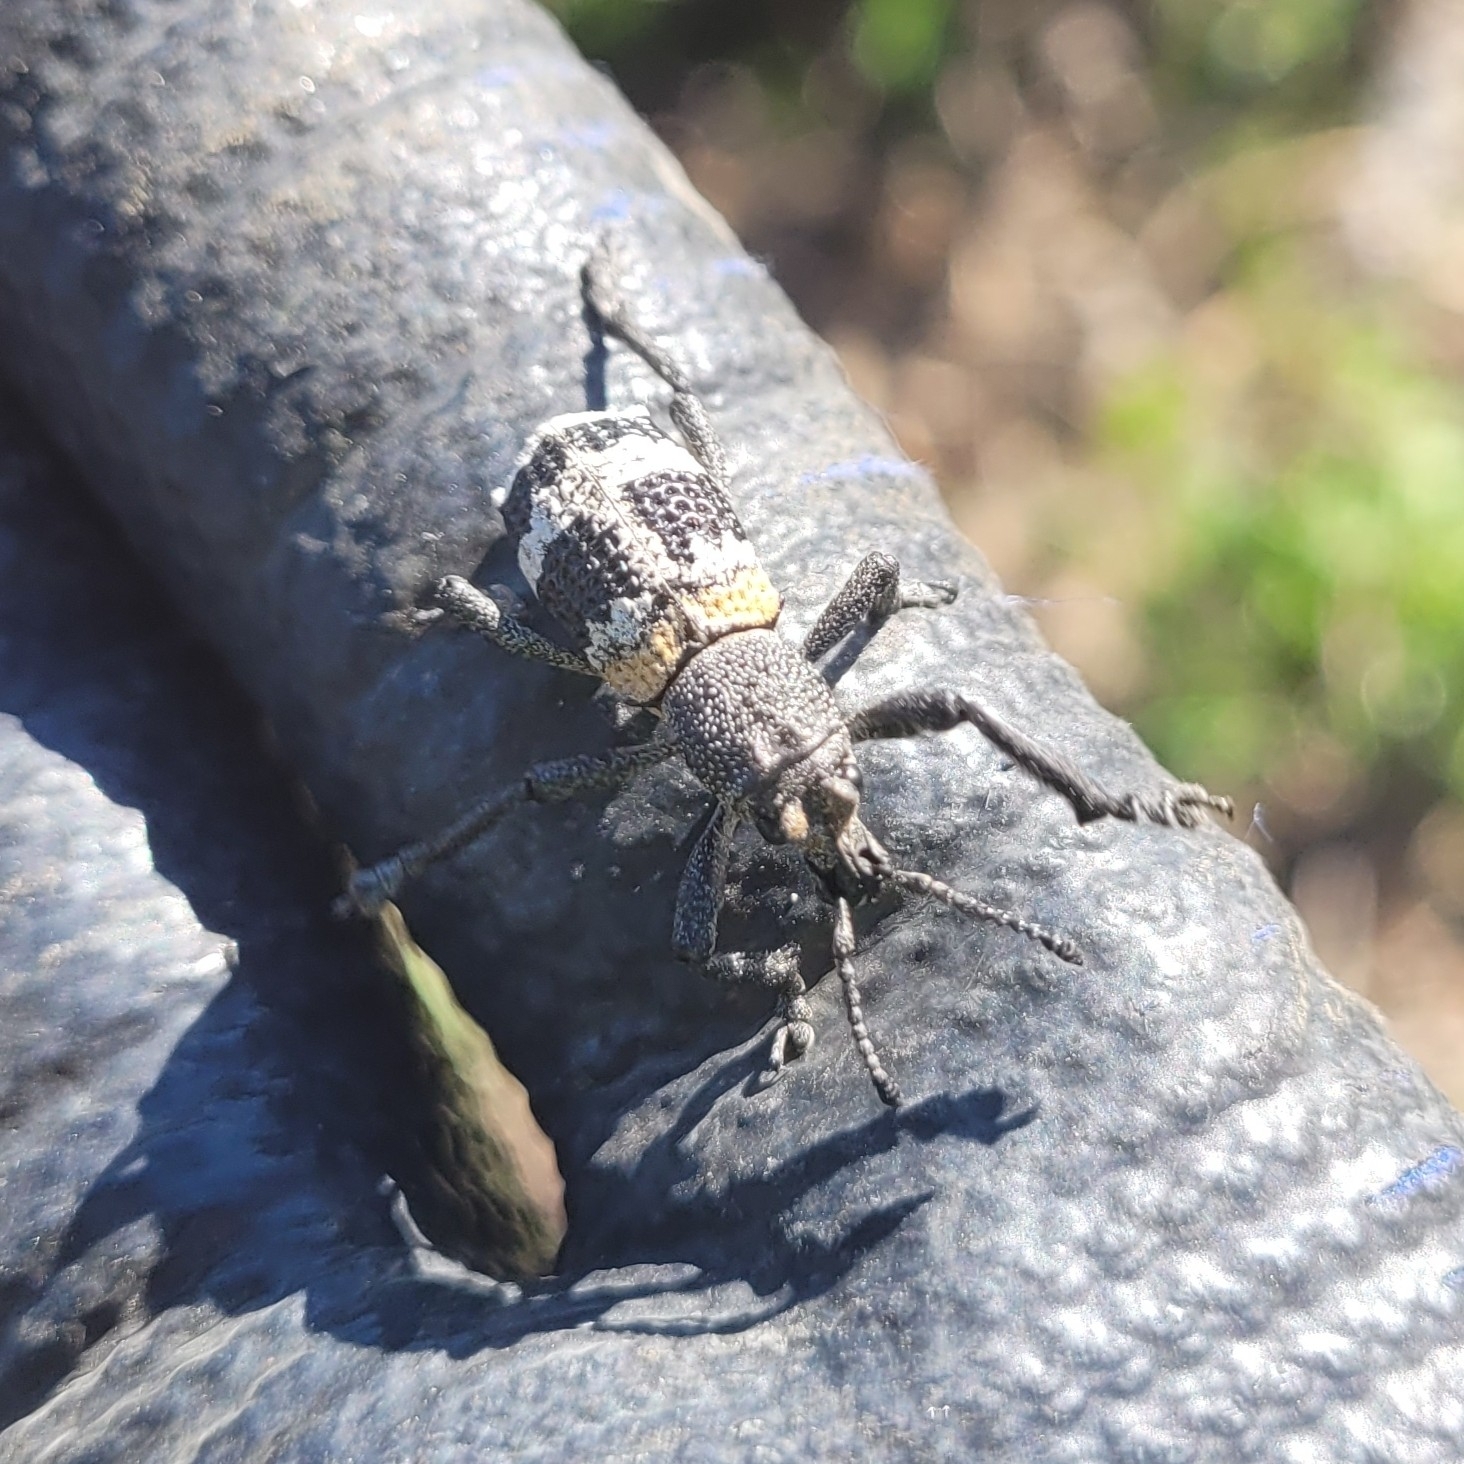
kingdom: Animalia
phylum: Arthropoda
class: Insecta
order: Coleoptera
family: Curculionidae
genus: Aegorhinus
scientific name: Aegorhinus phaleratus
